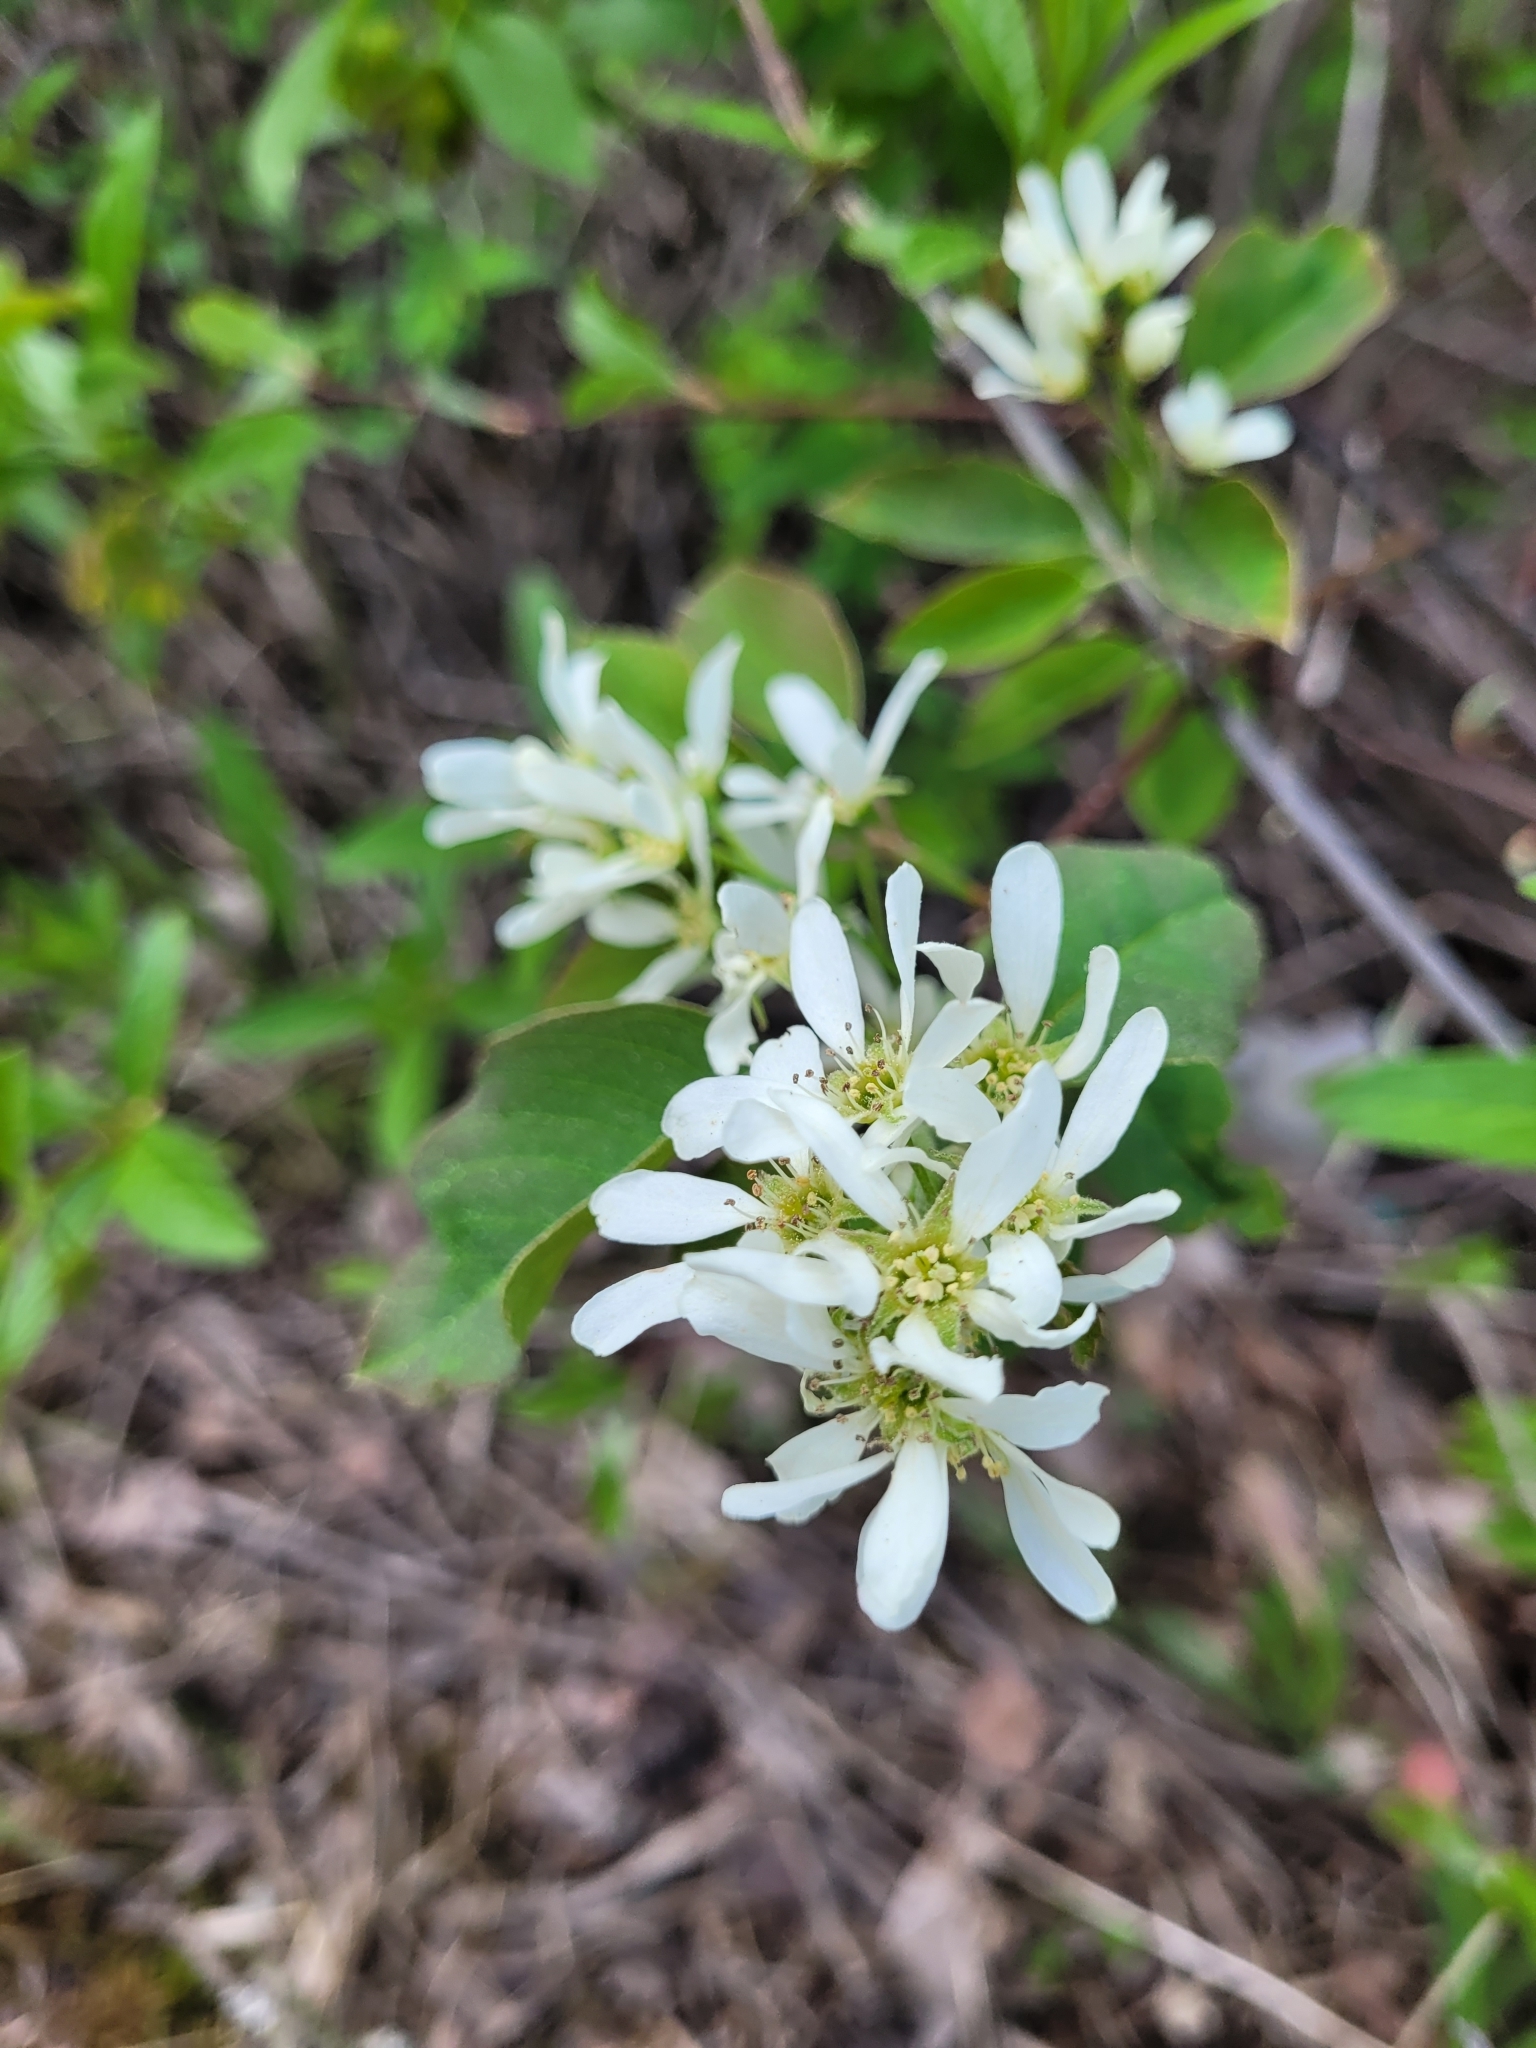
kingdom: Plantae
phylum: Tracheophyta
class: Magnoliopsida
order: Rosales
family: Rosaceae
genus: Amelanchier
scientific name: Amelanchier alnifolia
